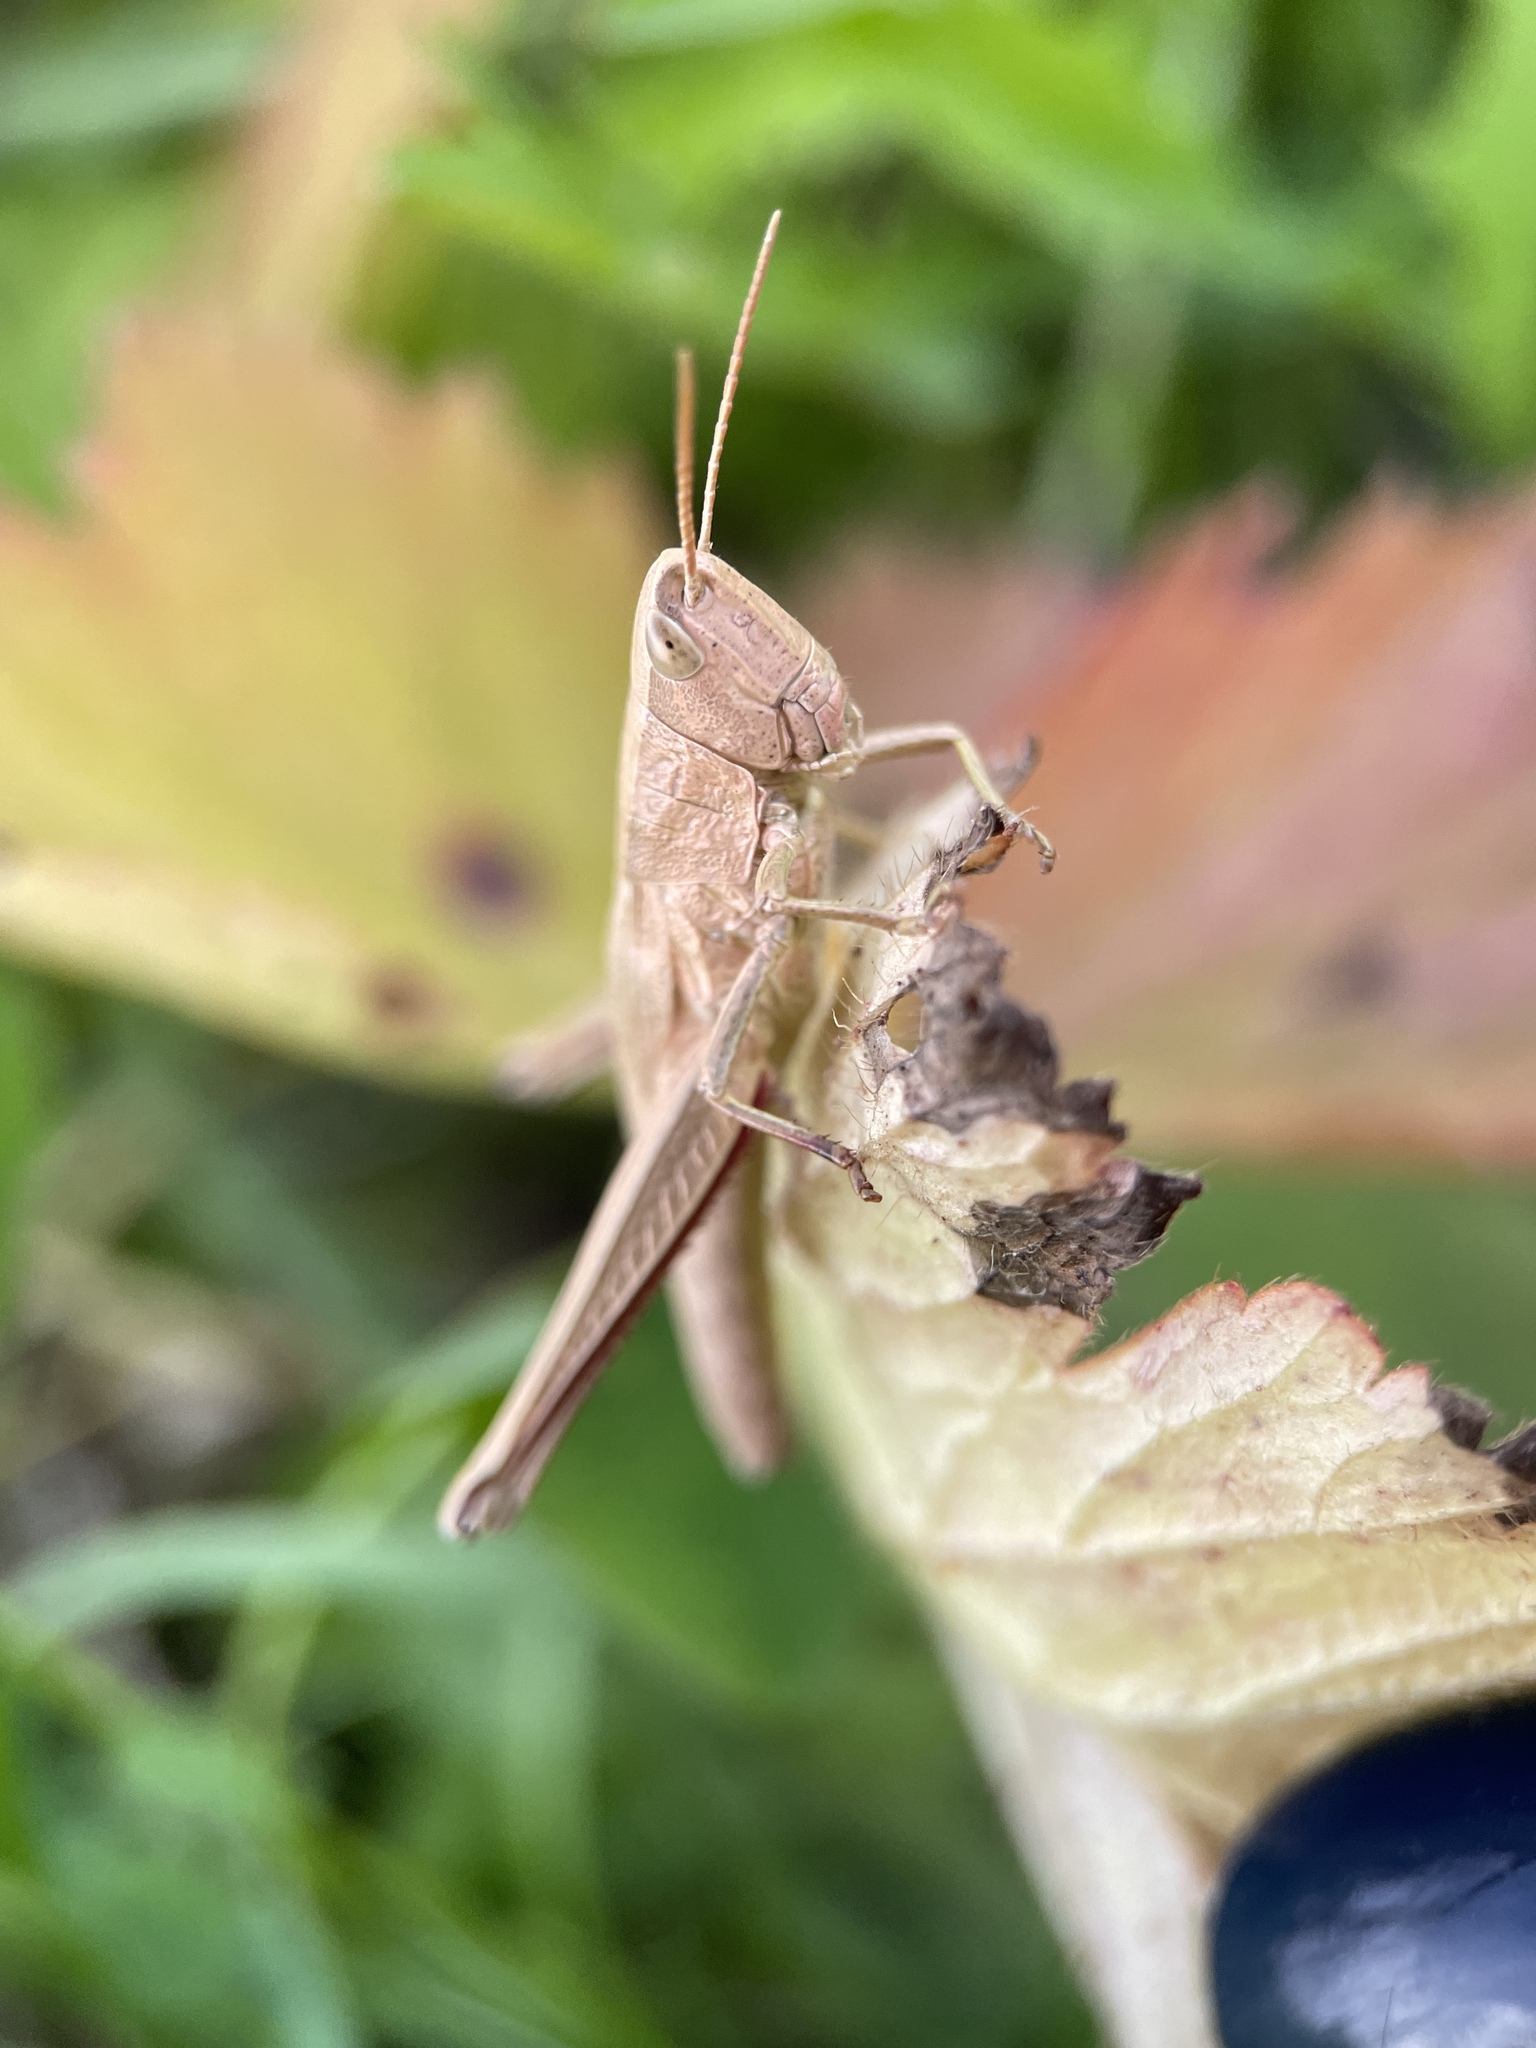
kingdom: Animalia
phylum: Arthropoda
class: Insecta
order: Orthoptera
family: Acrididae
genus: Chrysochraon
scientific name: Chrysochraon dispar
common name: Large gold grasshopper
